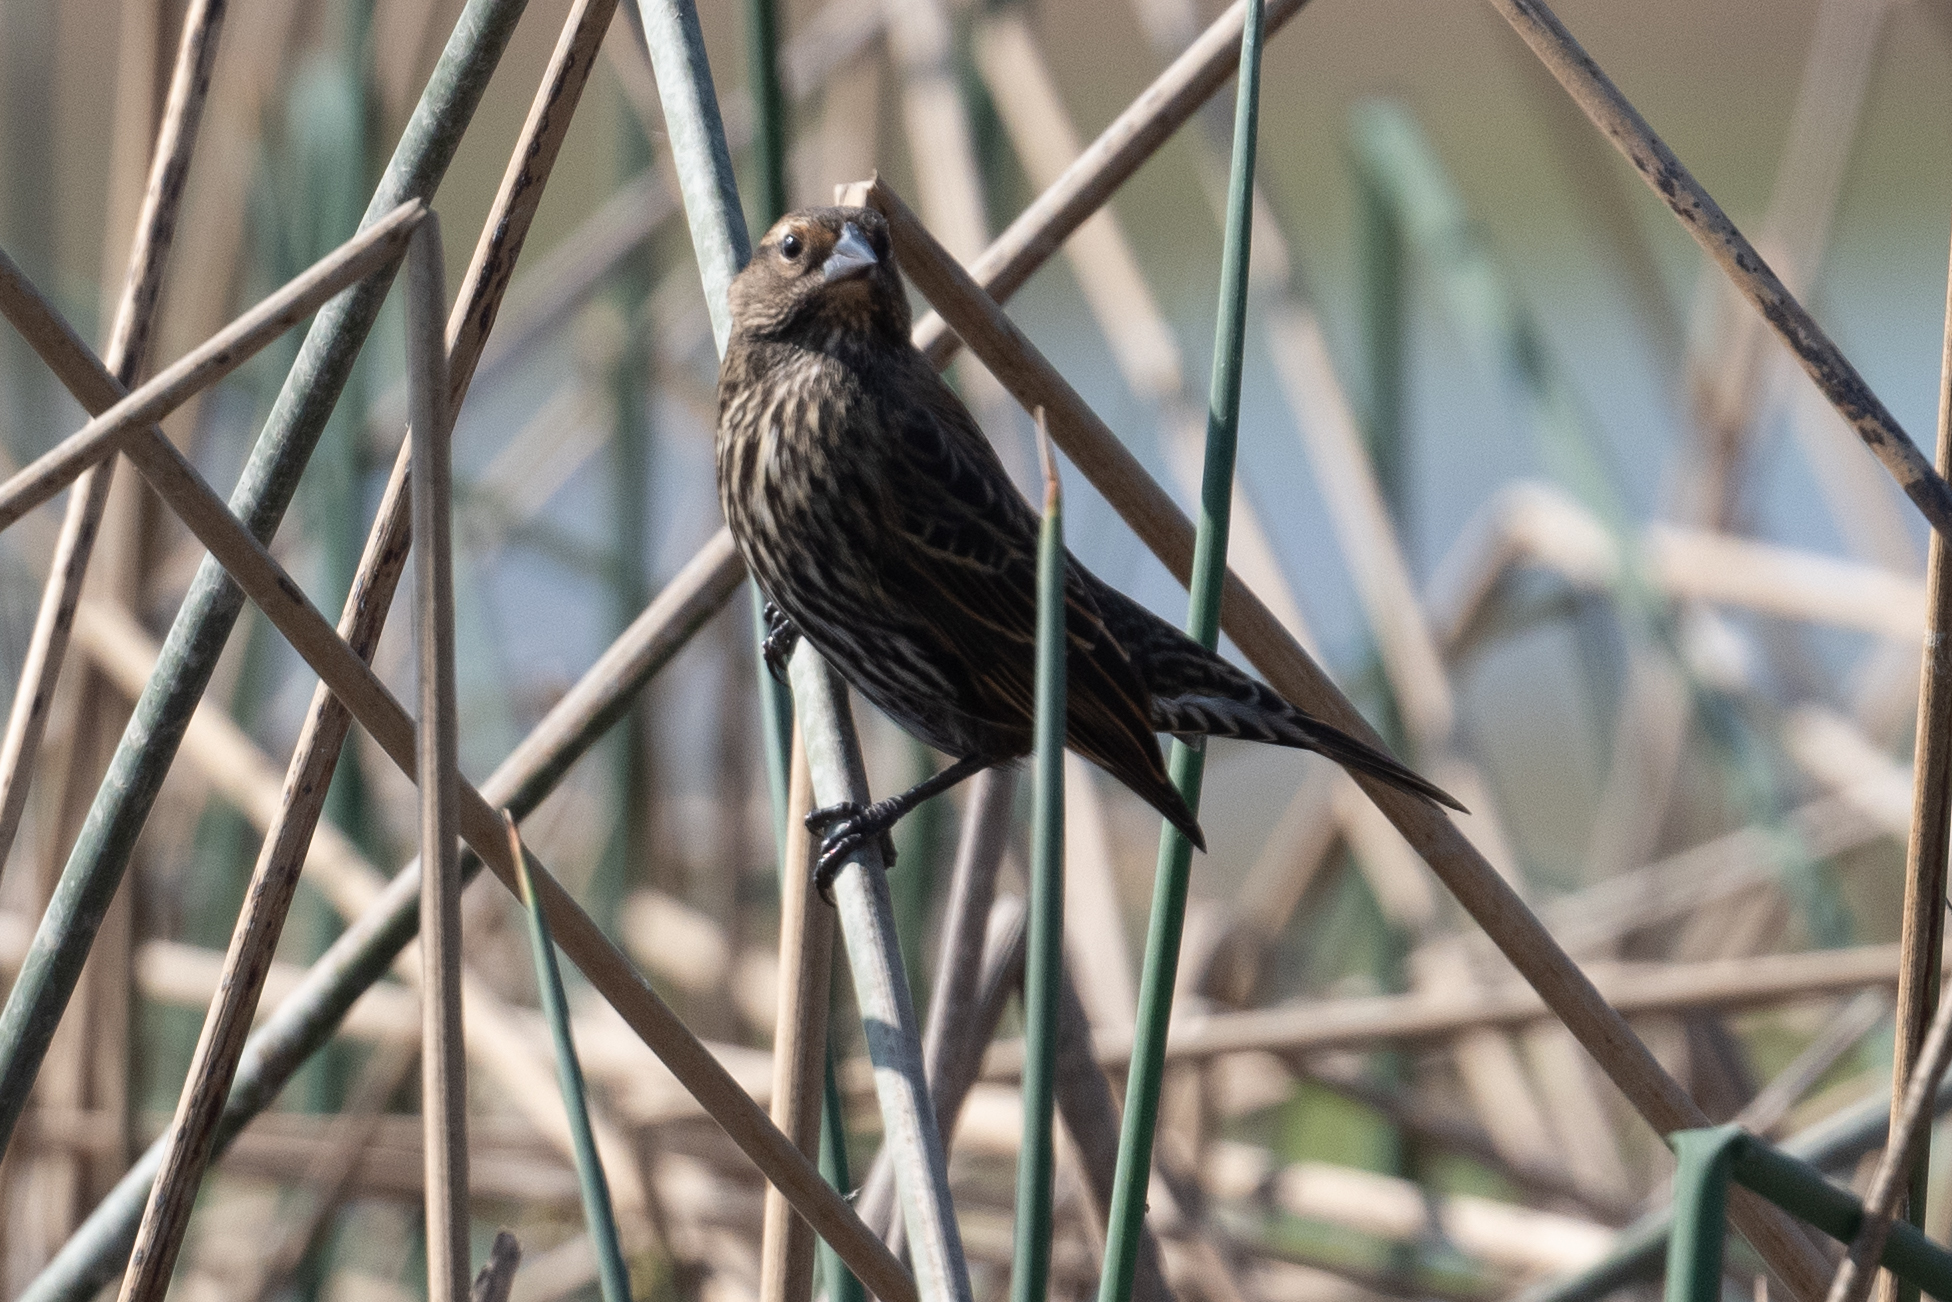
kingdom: Animalia
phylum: Chordata
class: Aves
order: Passeriformes
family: Icteridae
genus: Agelaius
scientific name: Agelaius phoeniceus
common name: Red-winged blackbird
